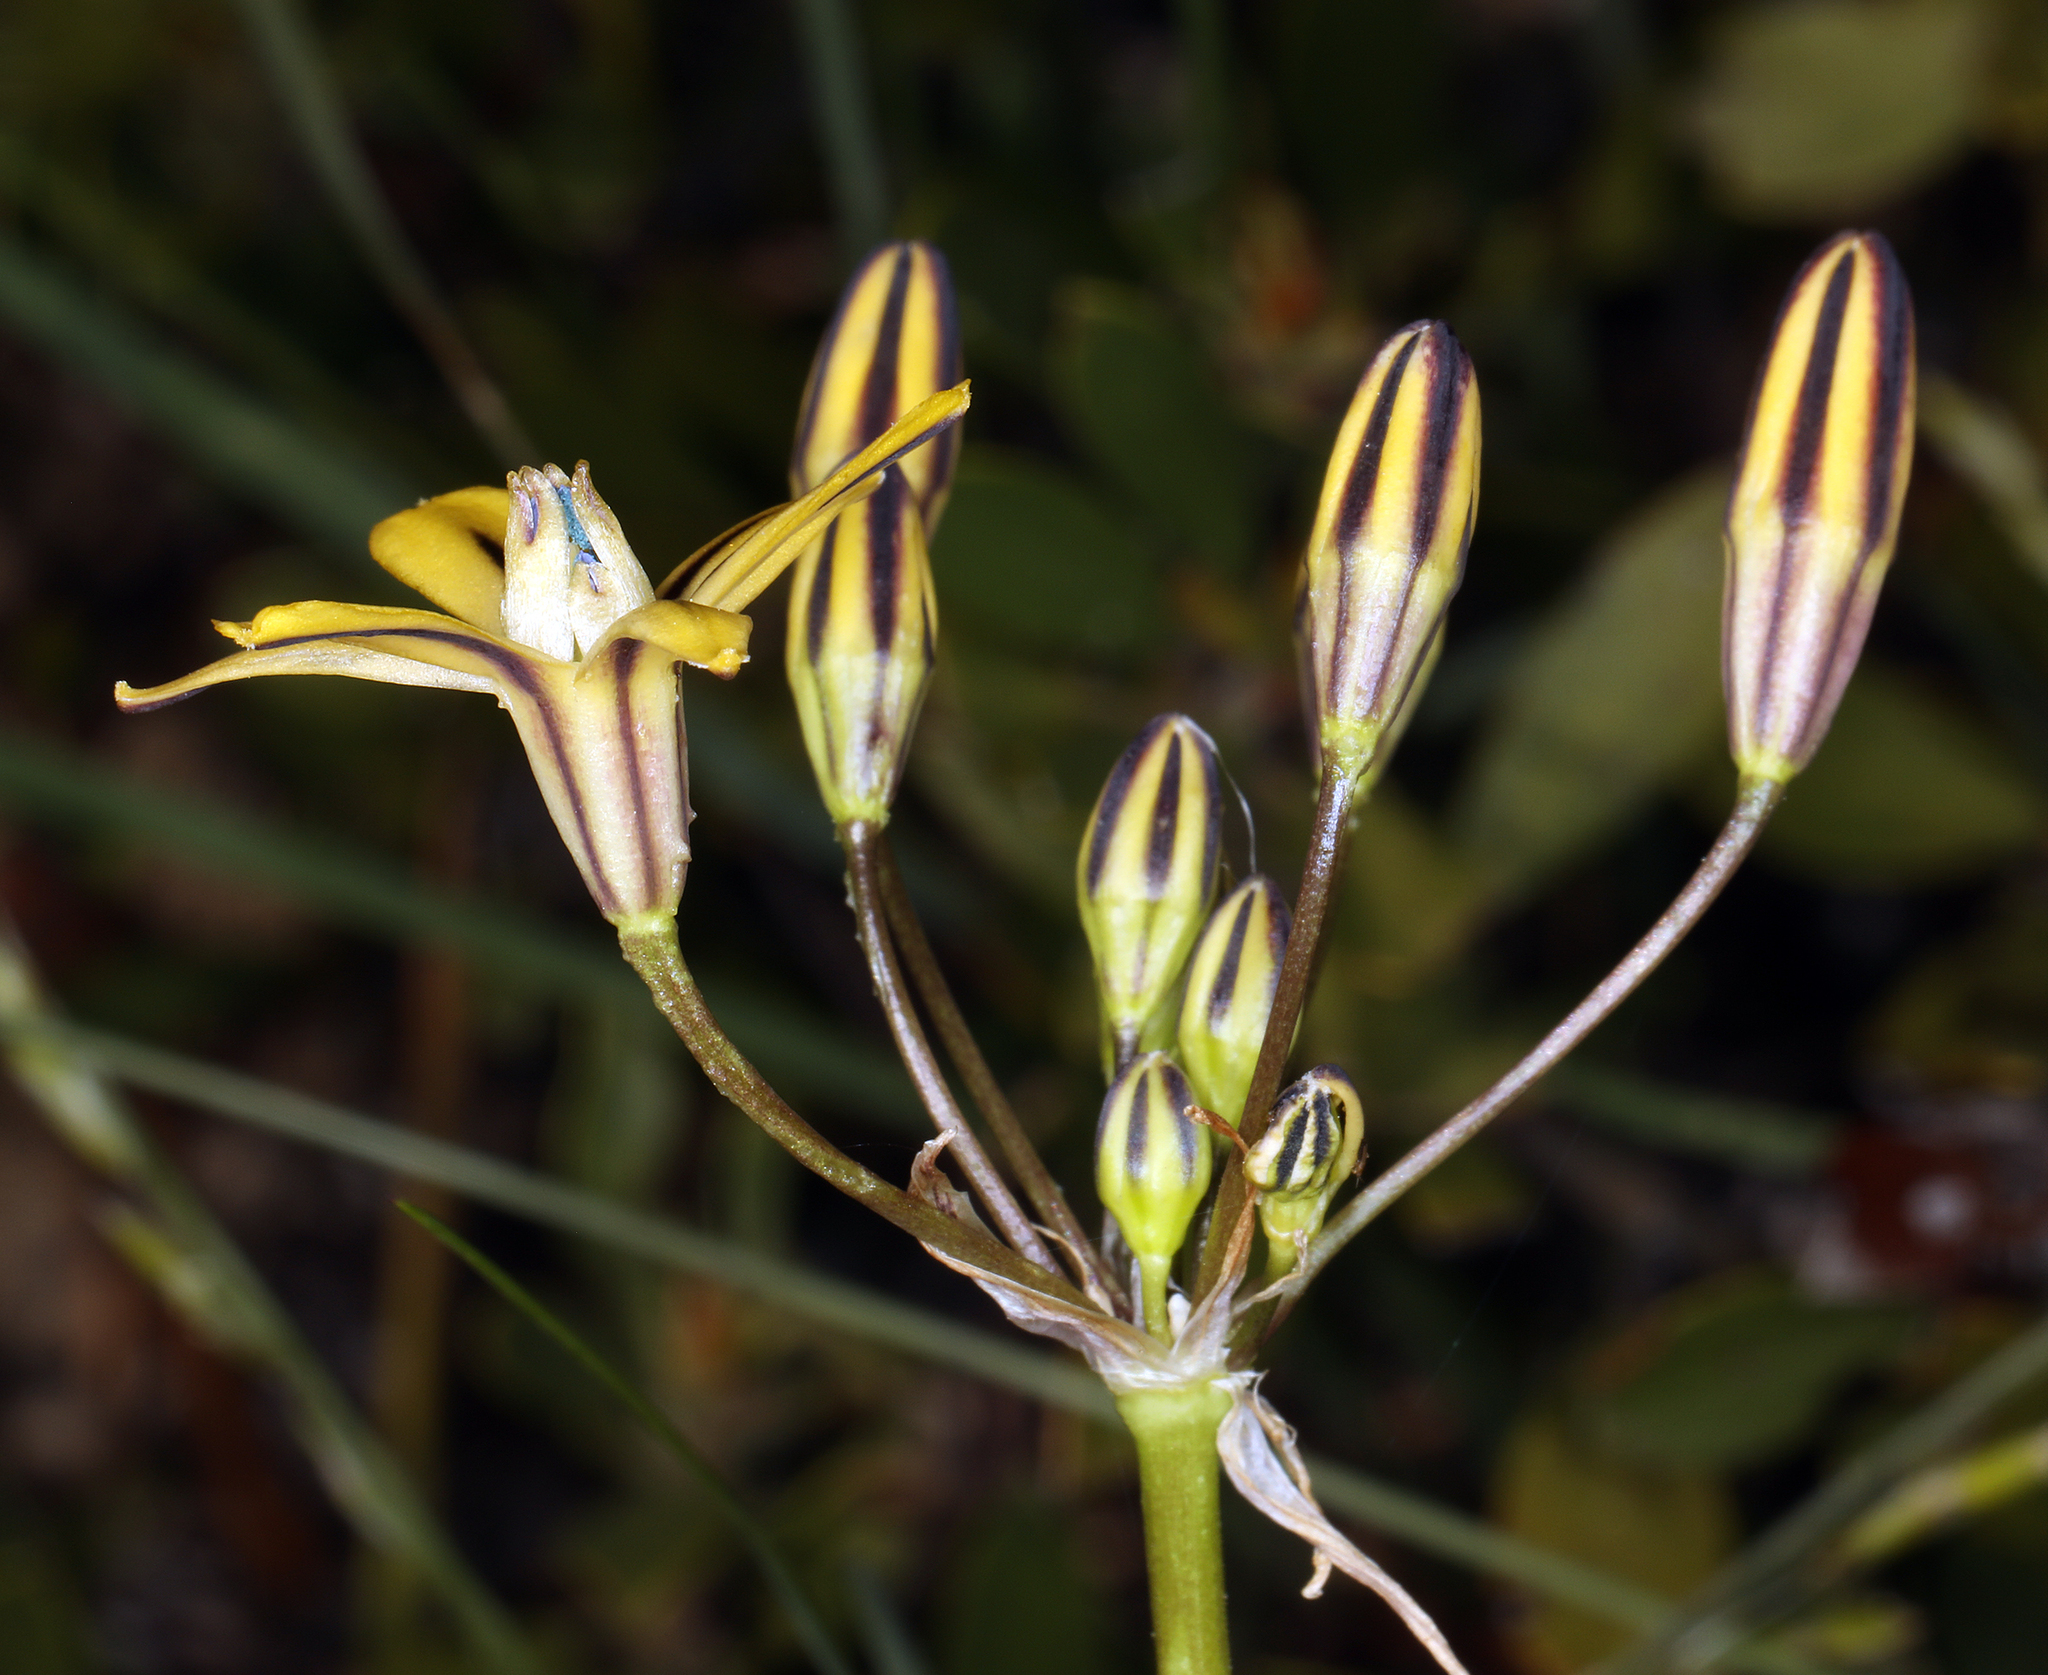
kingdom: Plantae
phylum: Tracheophyta
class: Liliopsida
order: Asparagales
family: Asparagaceae
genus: Triteleia
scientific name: Triteleia ixioides
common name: Yellow-brodiaea
